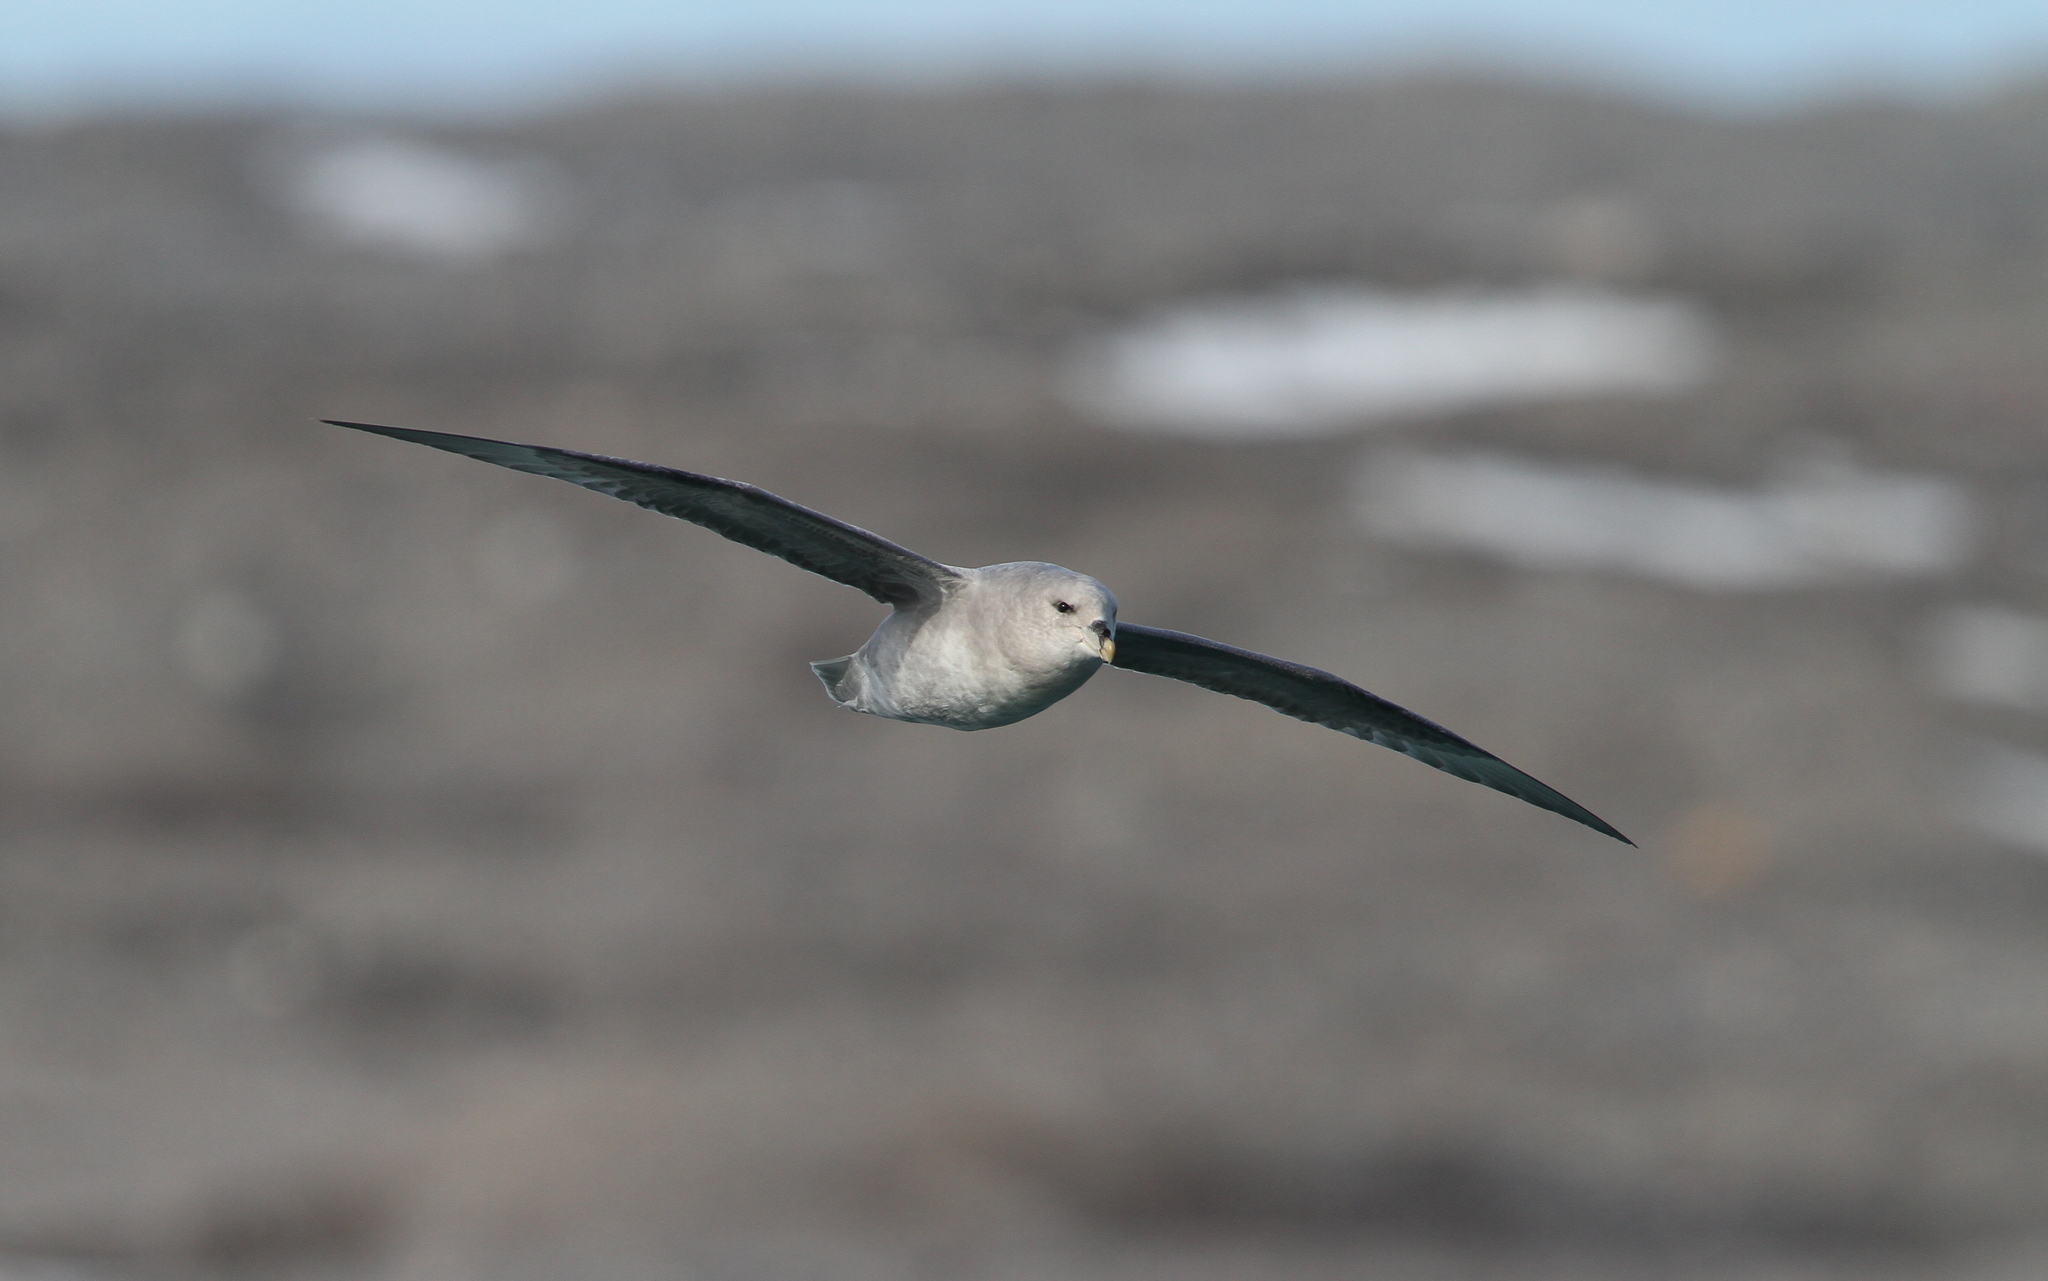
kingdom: Animalia
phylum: Chordata
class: Aves
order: Procellariiformes
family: Procellariidae
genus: Fulmarus
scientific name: Fulmarus glacialis
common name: Northern fulmar
